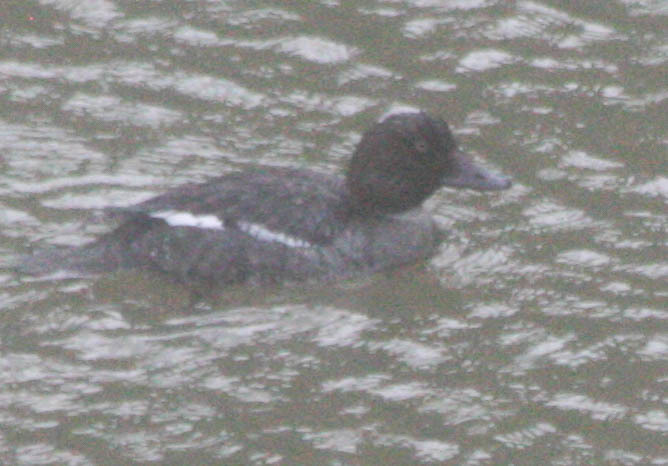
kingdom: Animalia
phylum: Chordata
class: Aves
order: Anseriformes
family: Anatidae
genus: Bucephala
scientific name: Bucephala clangula
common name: Common goldeneye
